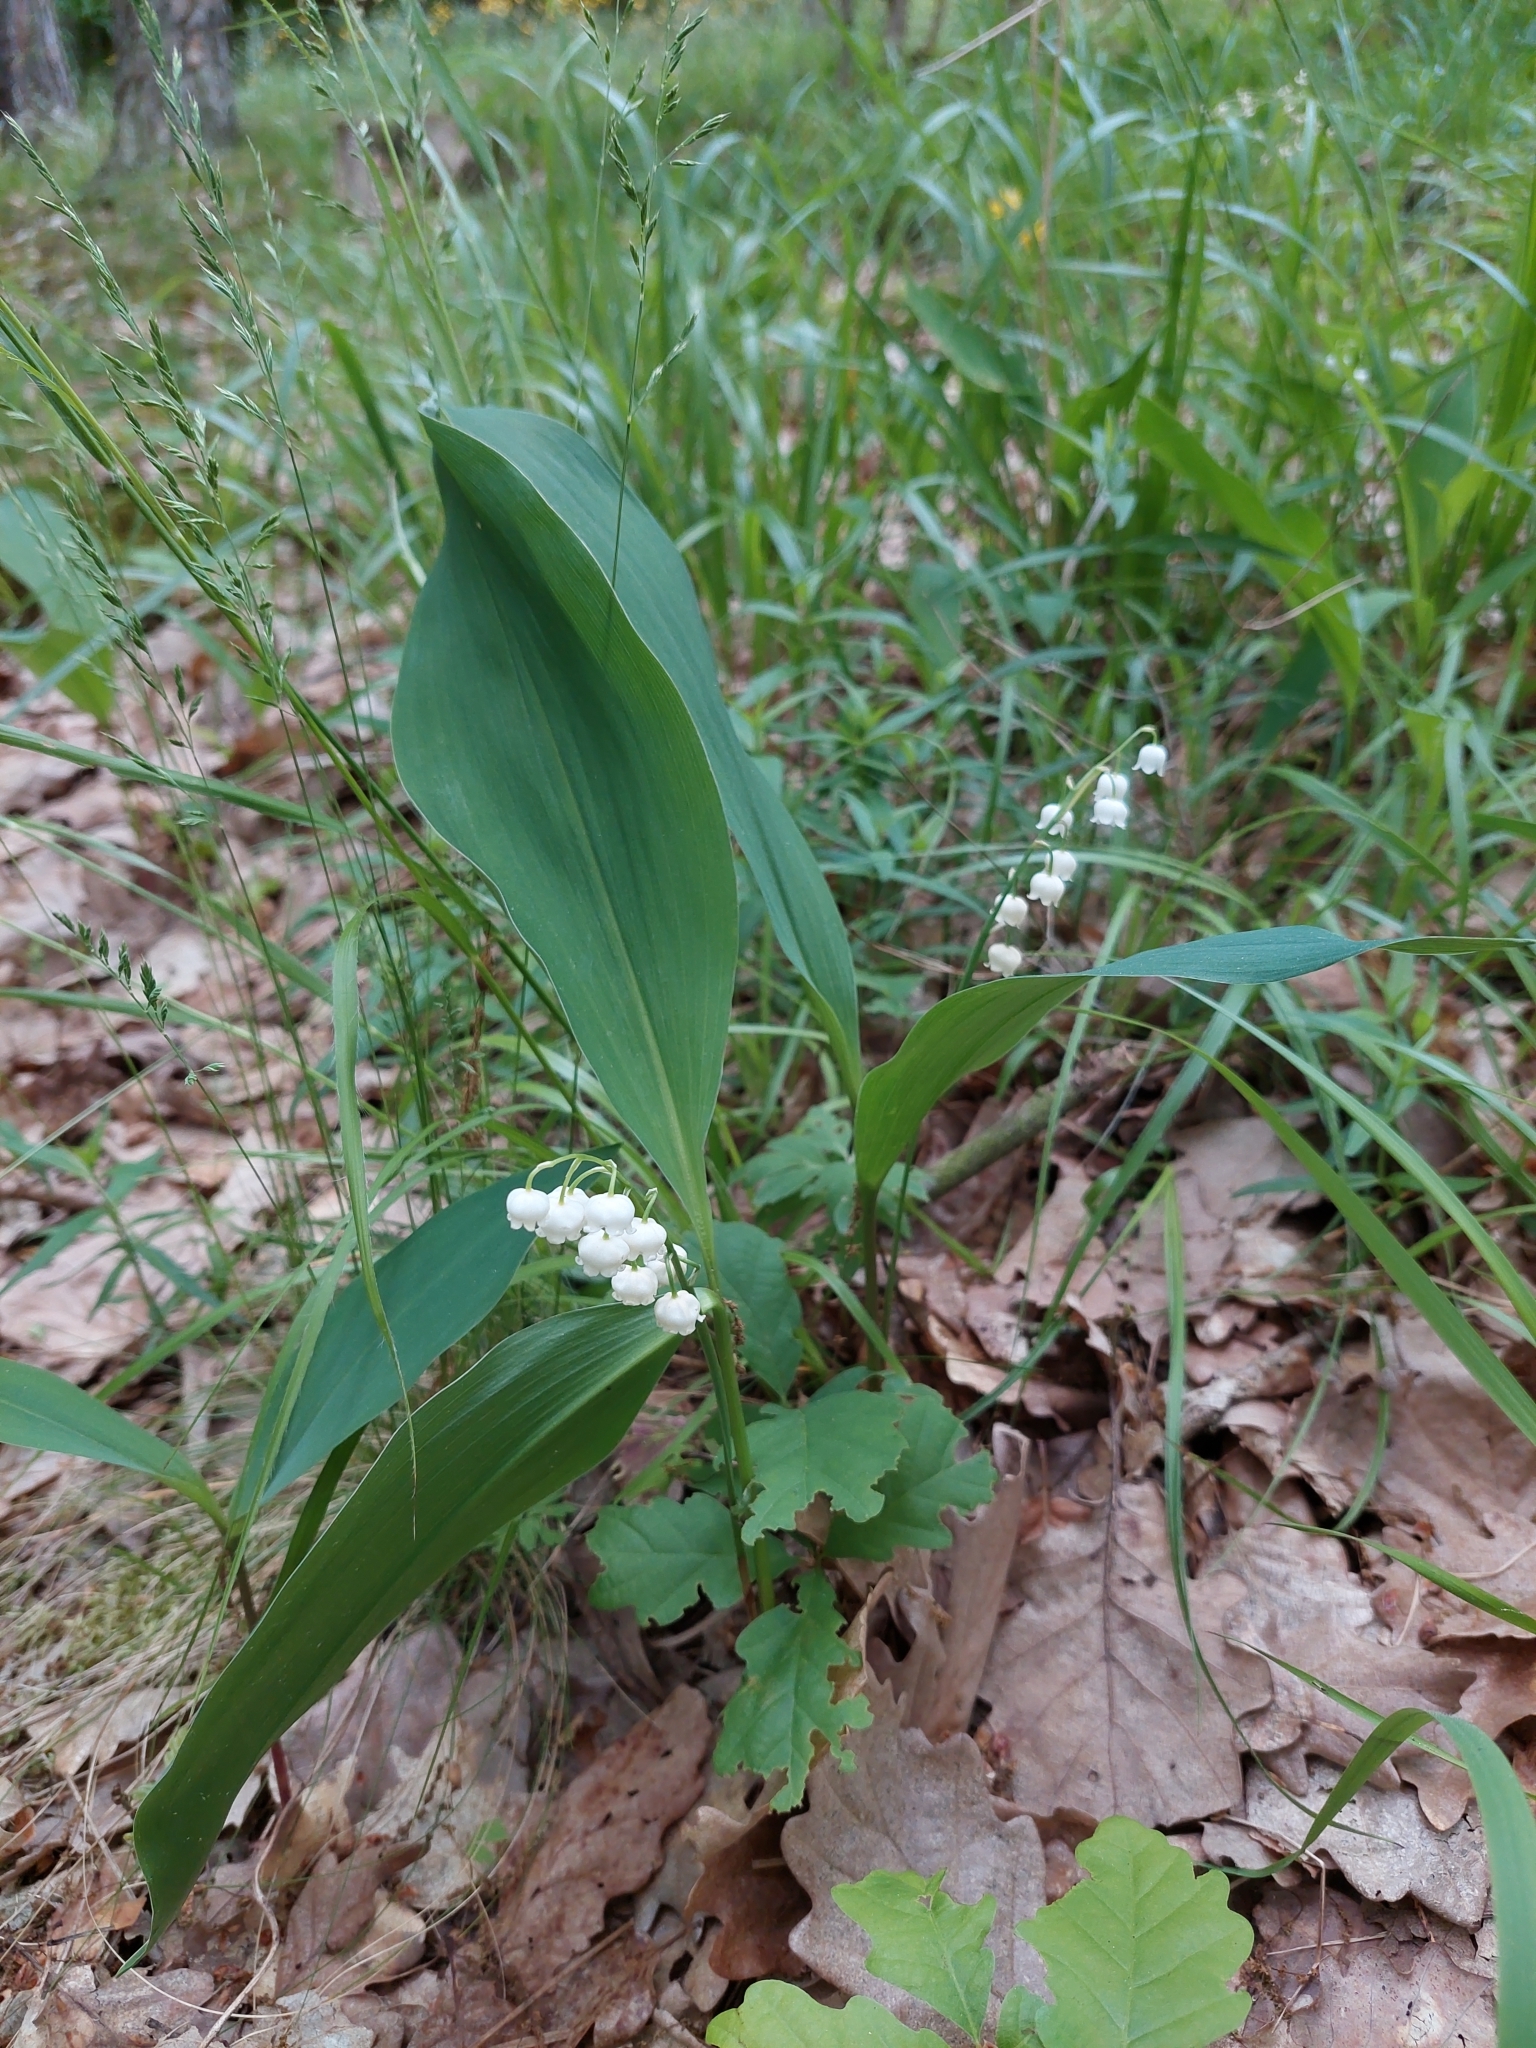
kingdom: Plantae
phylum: Tracheophyta
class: Liliopsida
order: Asparagales
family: Asparagaceae
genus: Convallaria
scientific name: Convallaria majalis
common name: Lily-of-the-valley
